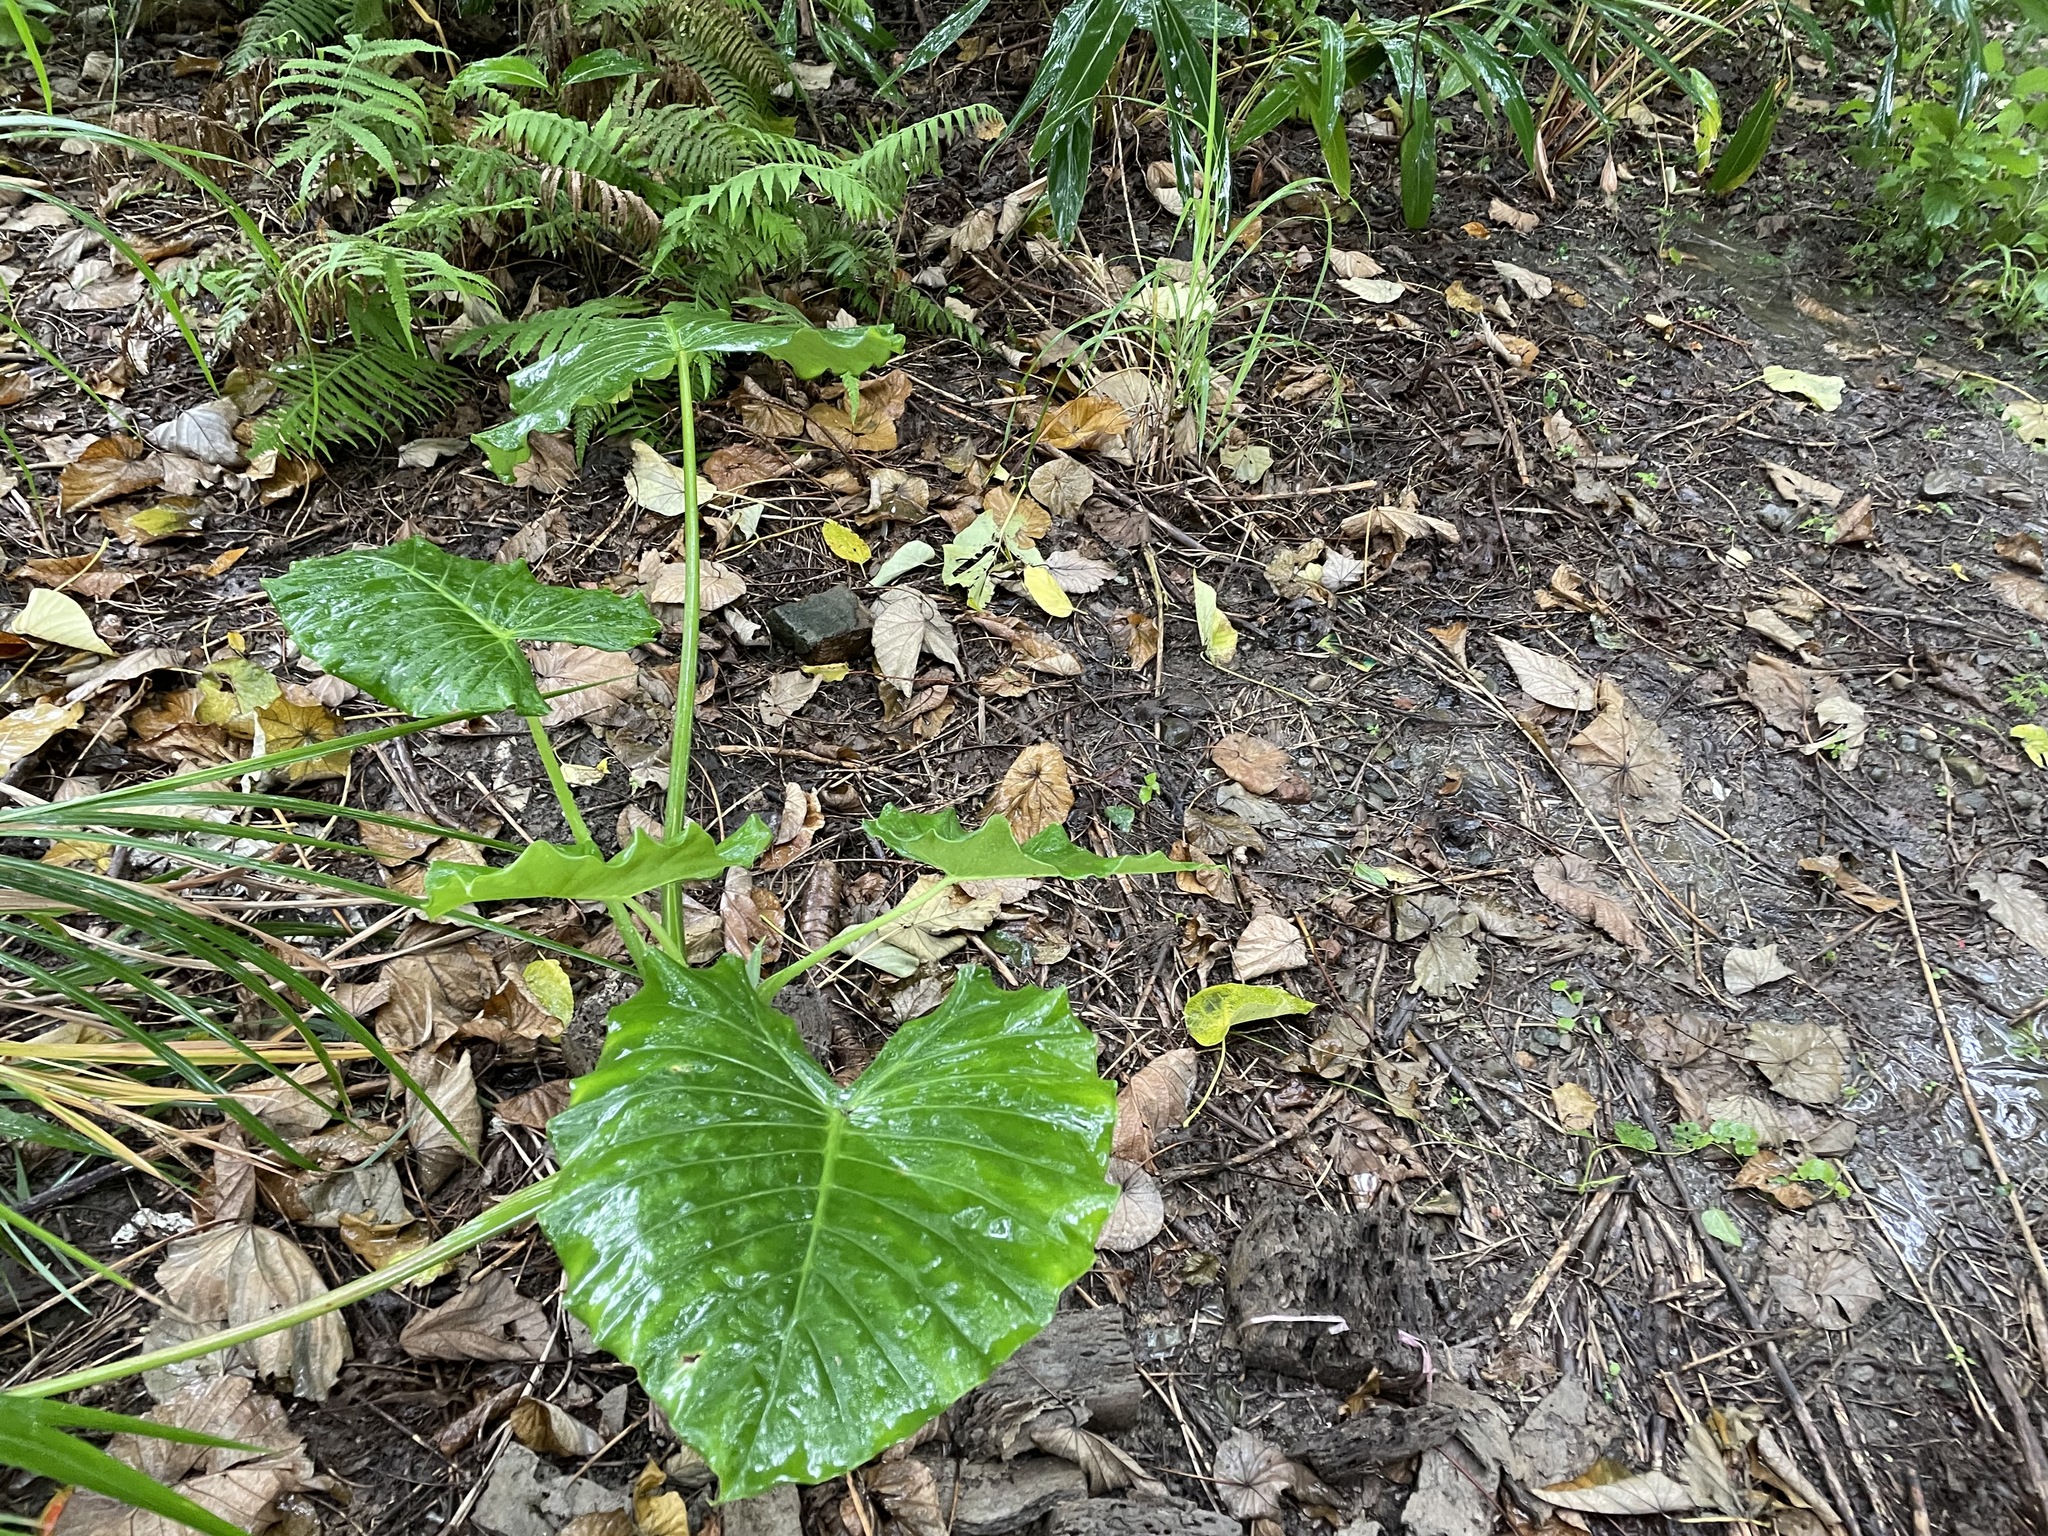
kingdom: Plantae
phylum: Tracheophyta
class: Liliopsida
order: Alismatales
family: Araceae
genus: Alocasia
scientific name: Alocasia odora
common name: Asian taro
